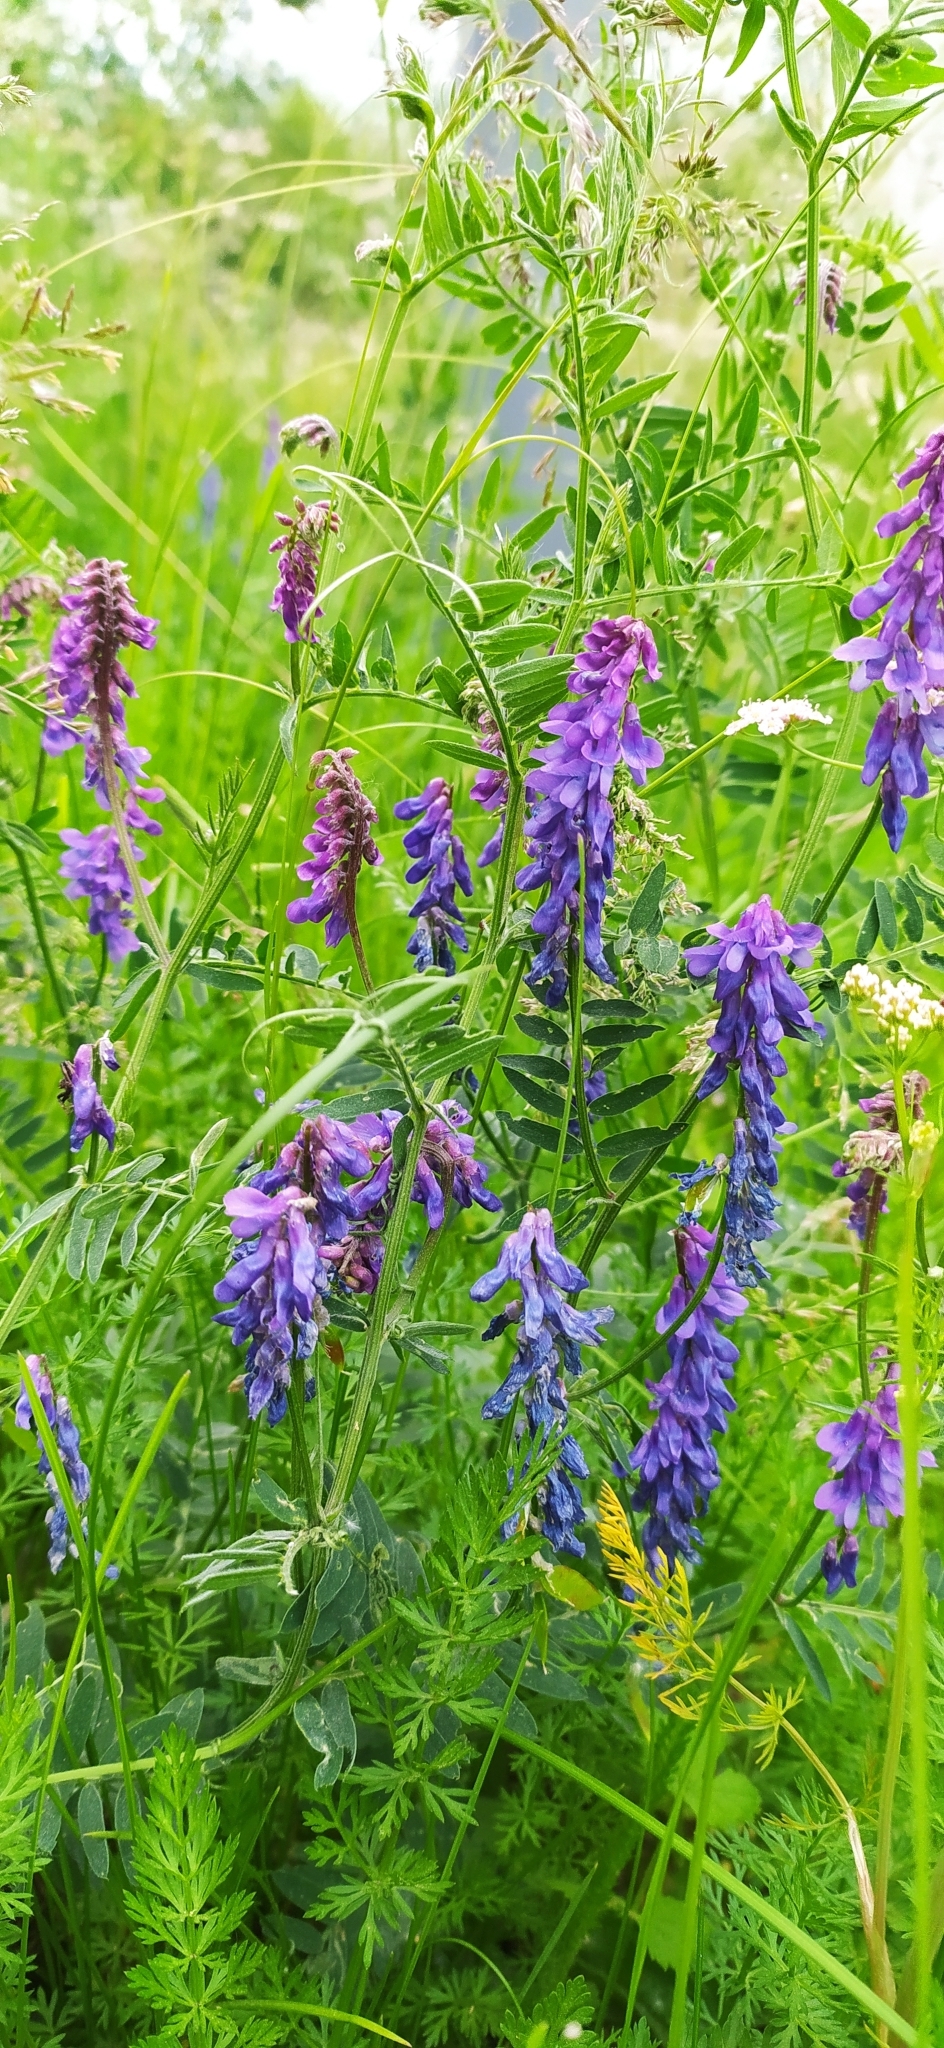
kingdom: Plantae
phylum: Tracheophyta
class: Magnoliopsida
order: Fabales
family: Fabaceae
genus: Vicia
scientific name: Vicia cracca
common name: Bird vetch
